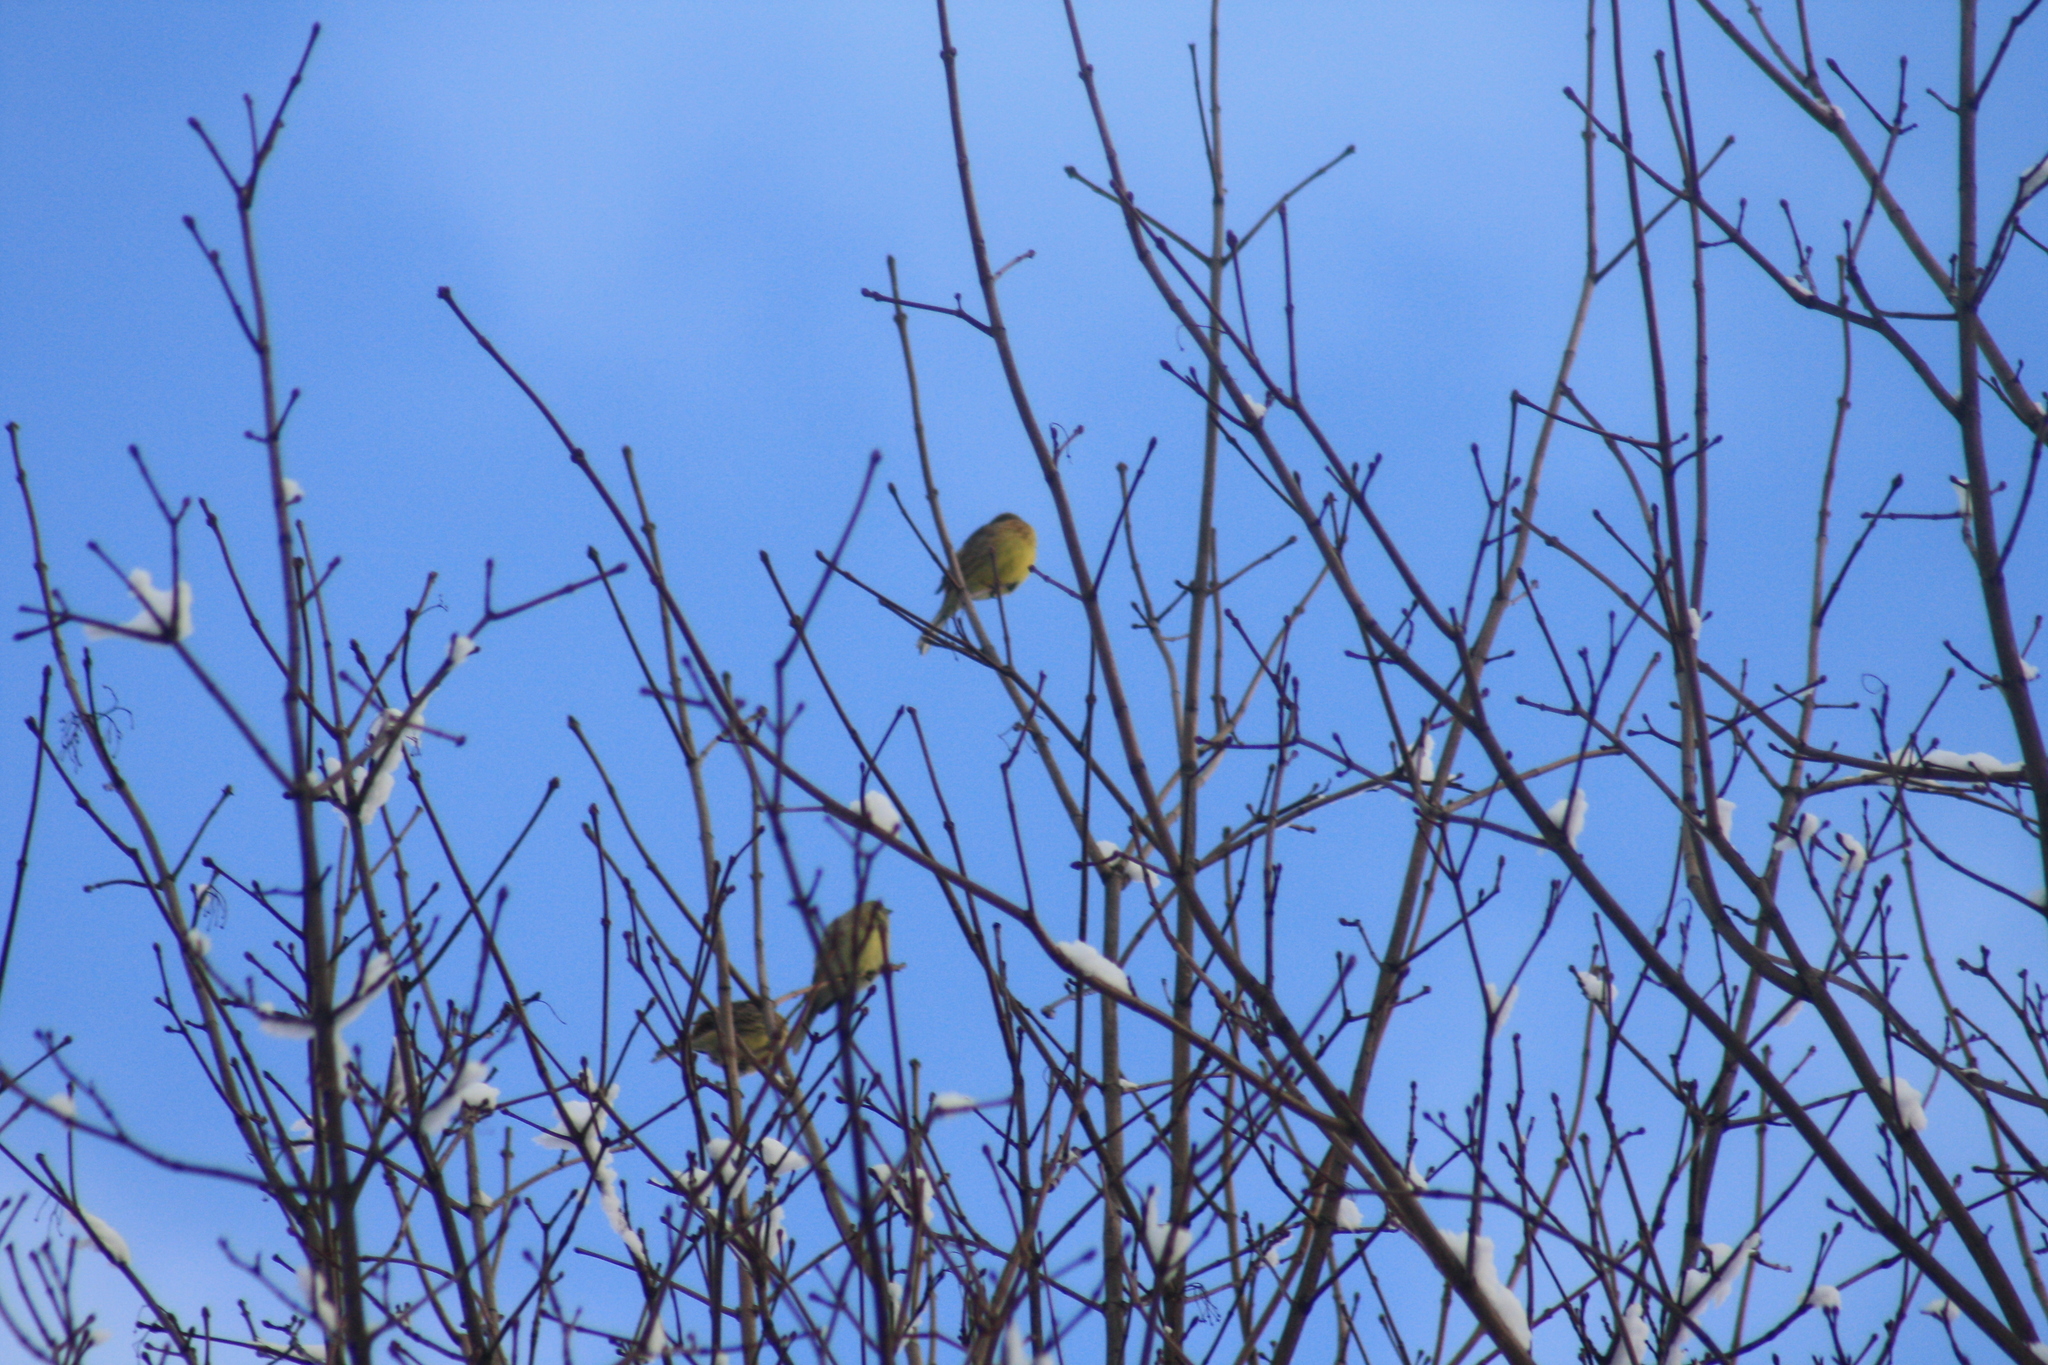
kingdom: Animalia
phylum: Chordata
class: Aves
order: Passeriformes
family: Emberizidae
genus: Emberiza
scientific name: Emberiza citrinella
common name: Yellowhammer
